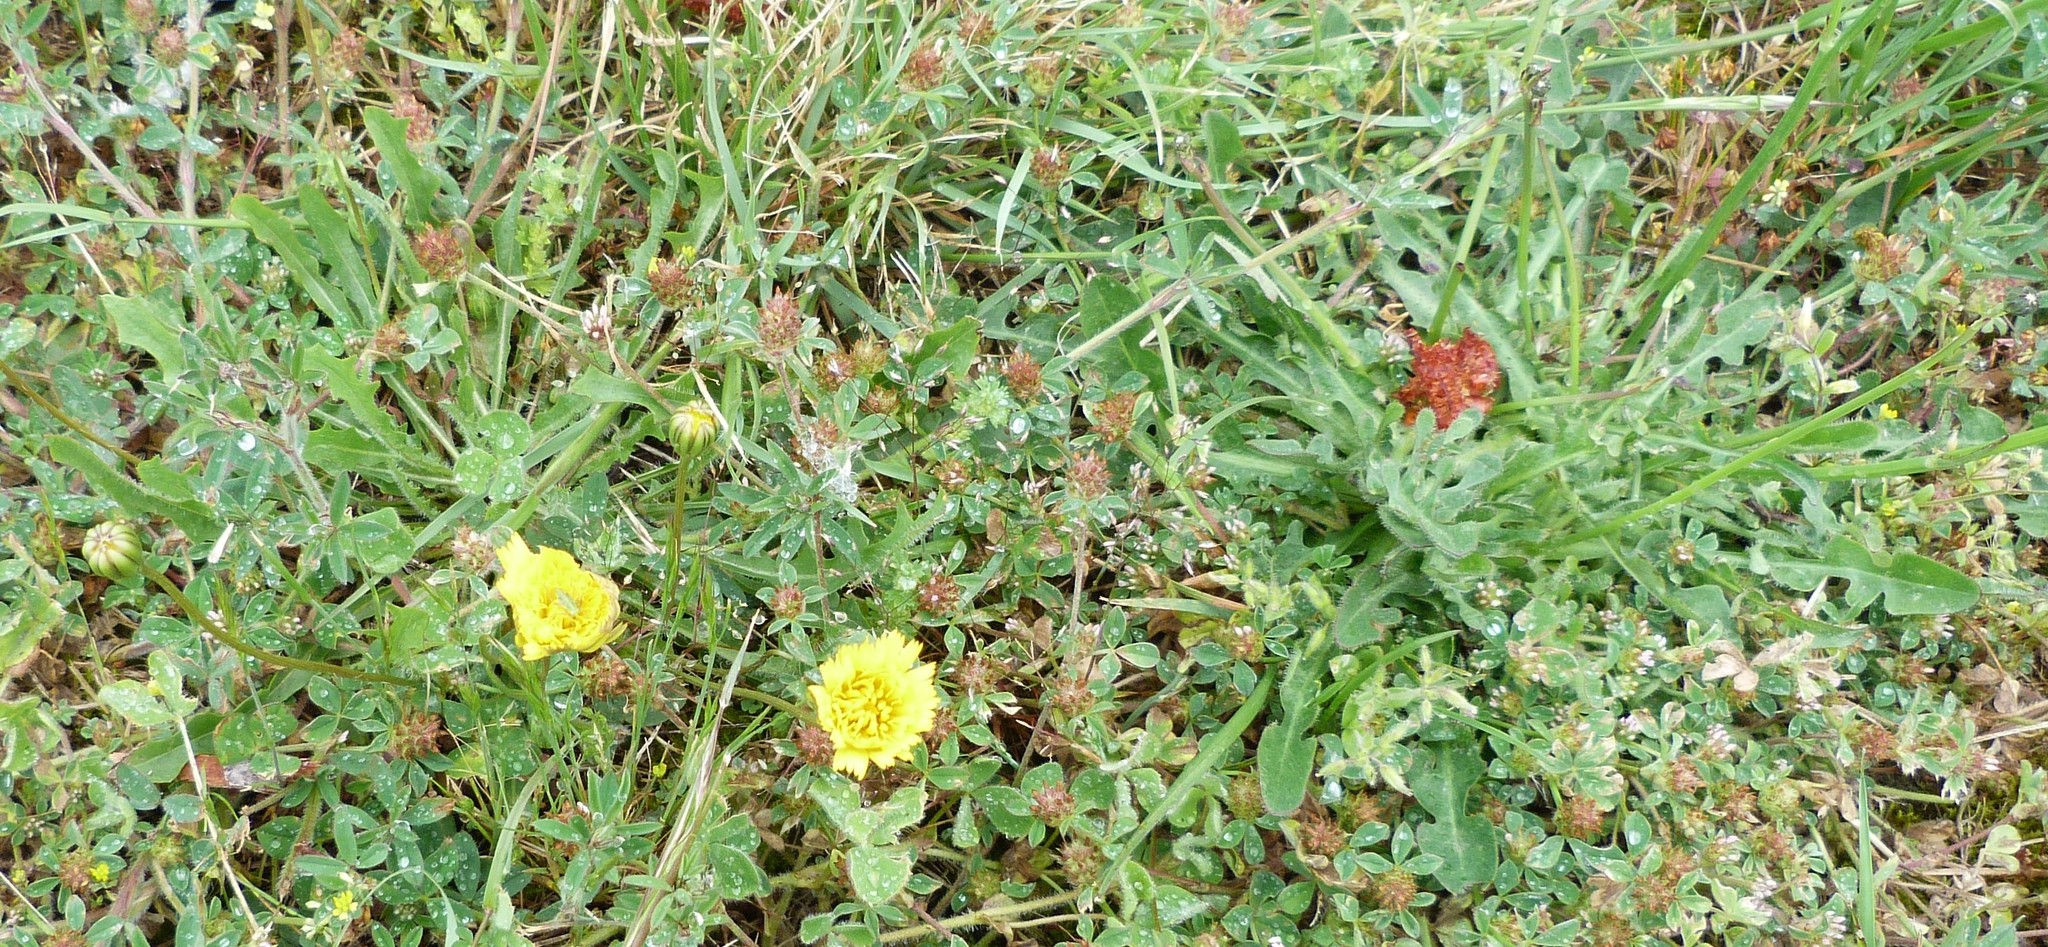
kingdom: Plantae
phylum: Tracheophyta
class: Magnoliopsida
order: Asterales
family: Asteraceae
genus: Hypochaeris
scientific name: Hypochaeris radicata
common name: Flatweed
